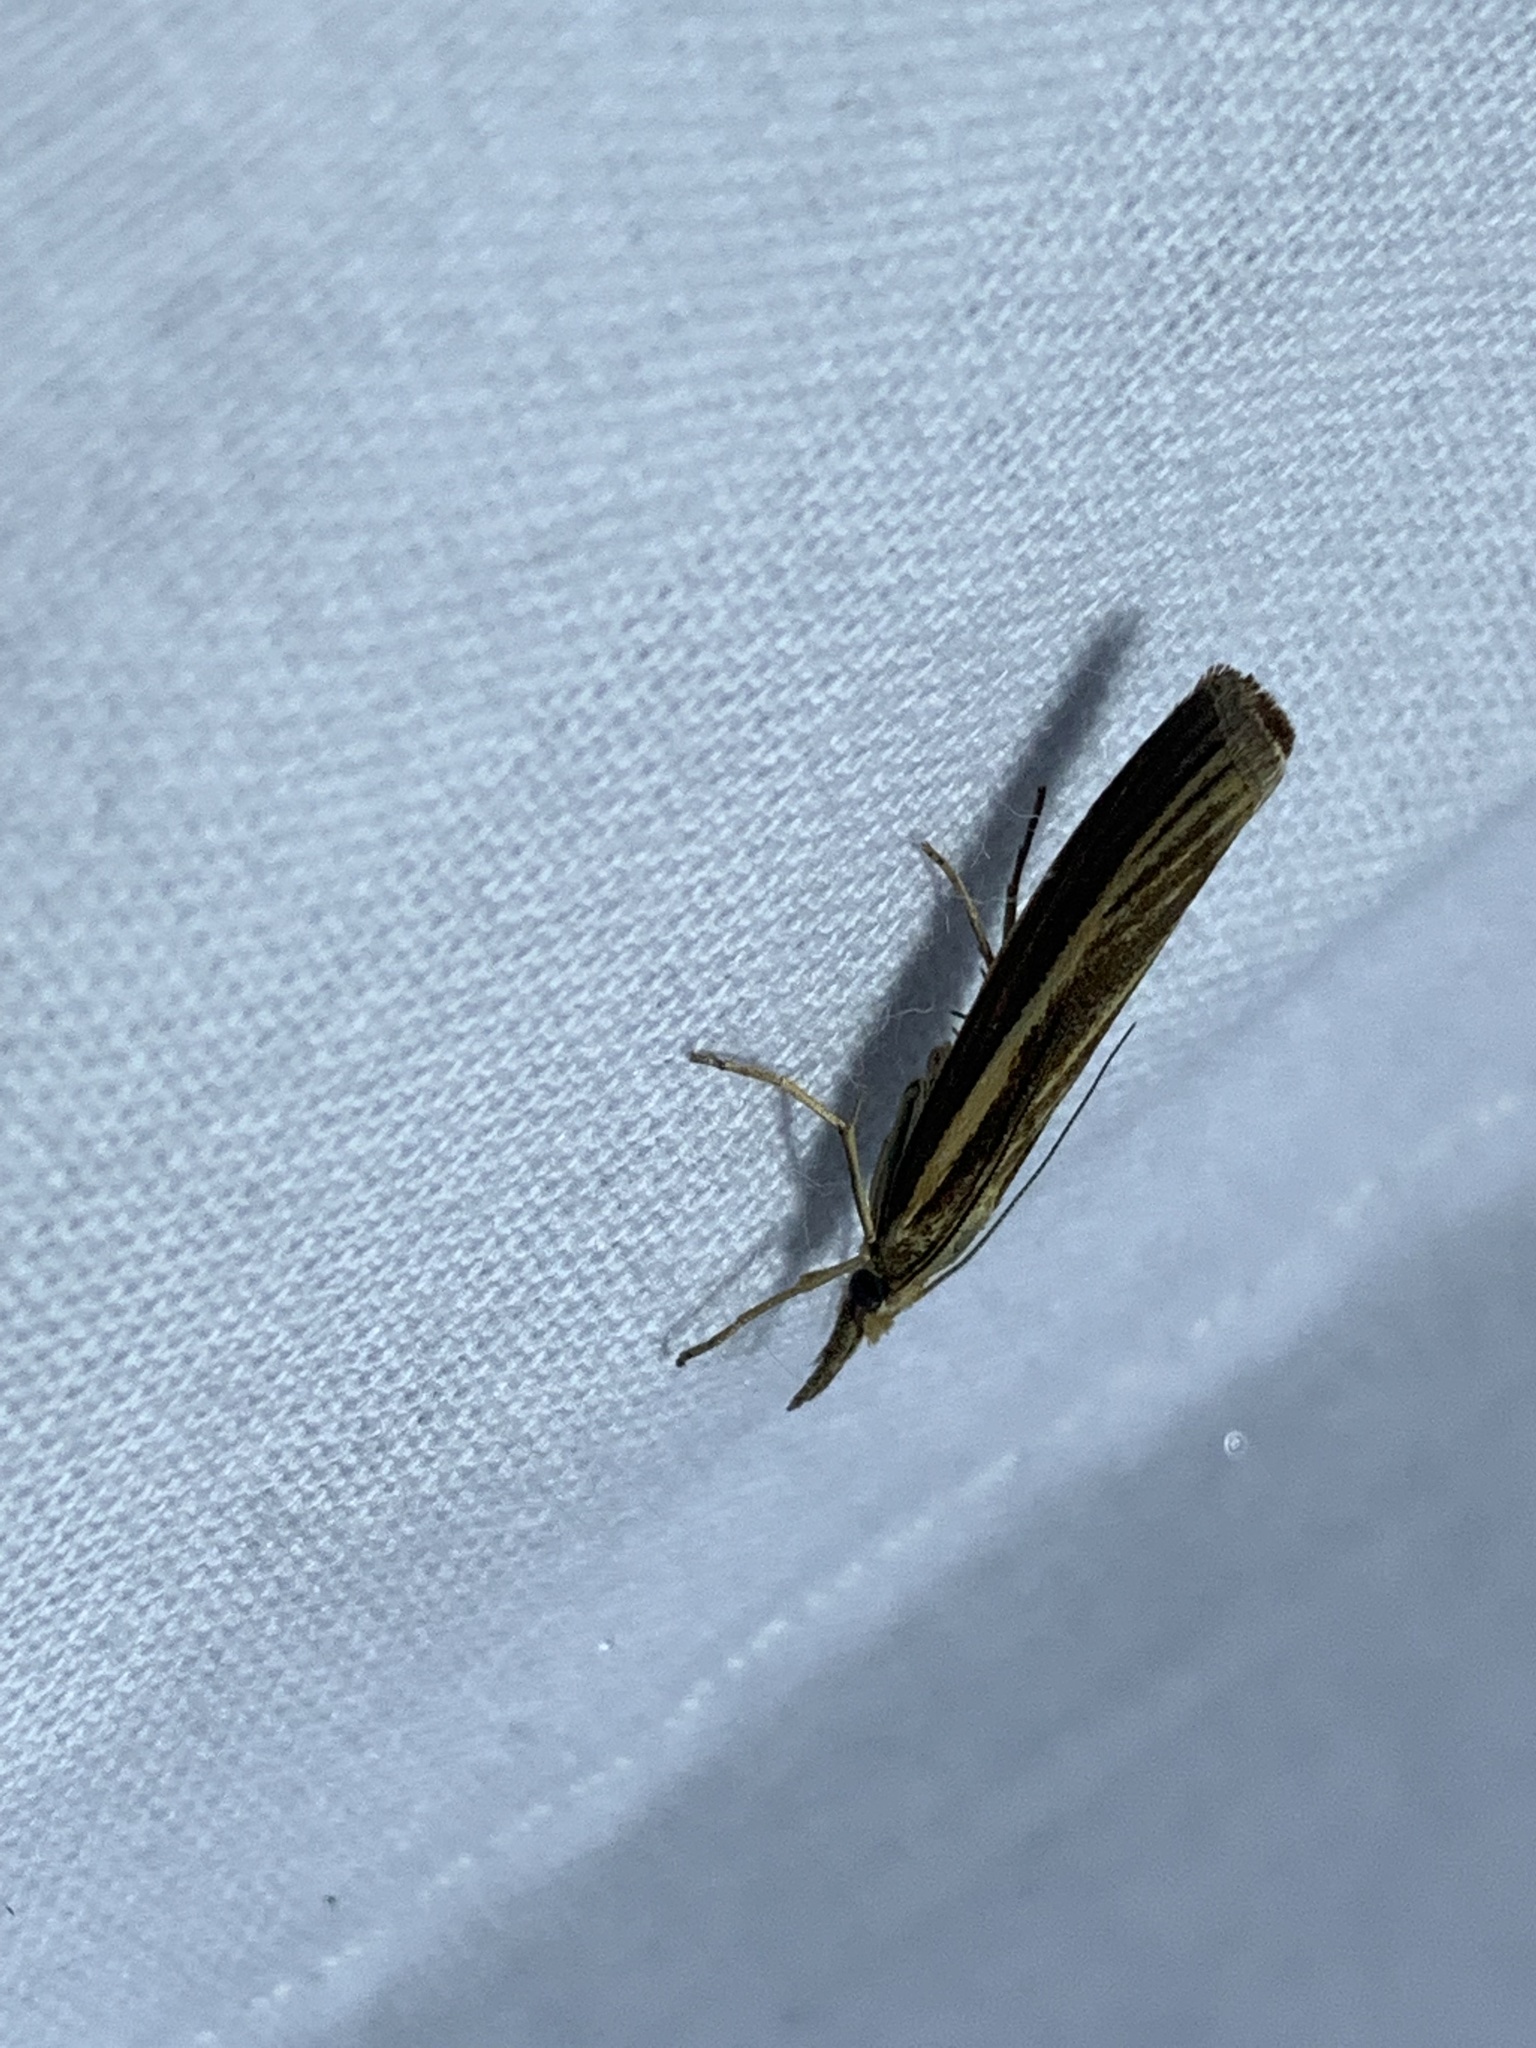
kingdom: Animalia
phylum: Arthropoda
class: Insecta
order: Lepidoptera
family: Crambidae
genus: Agriphila
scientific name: Agriphila tristellus
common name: Common grass-veneer
